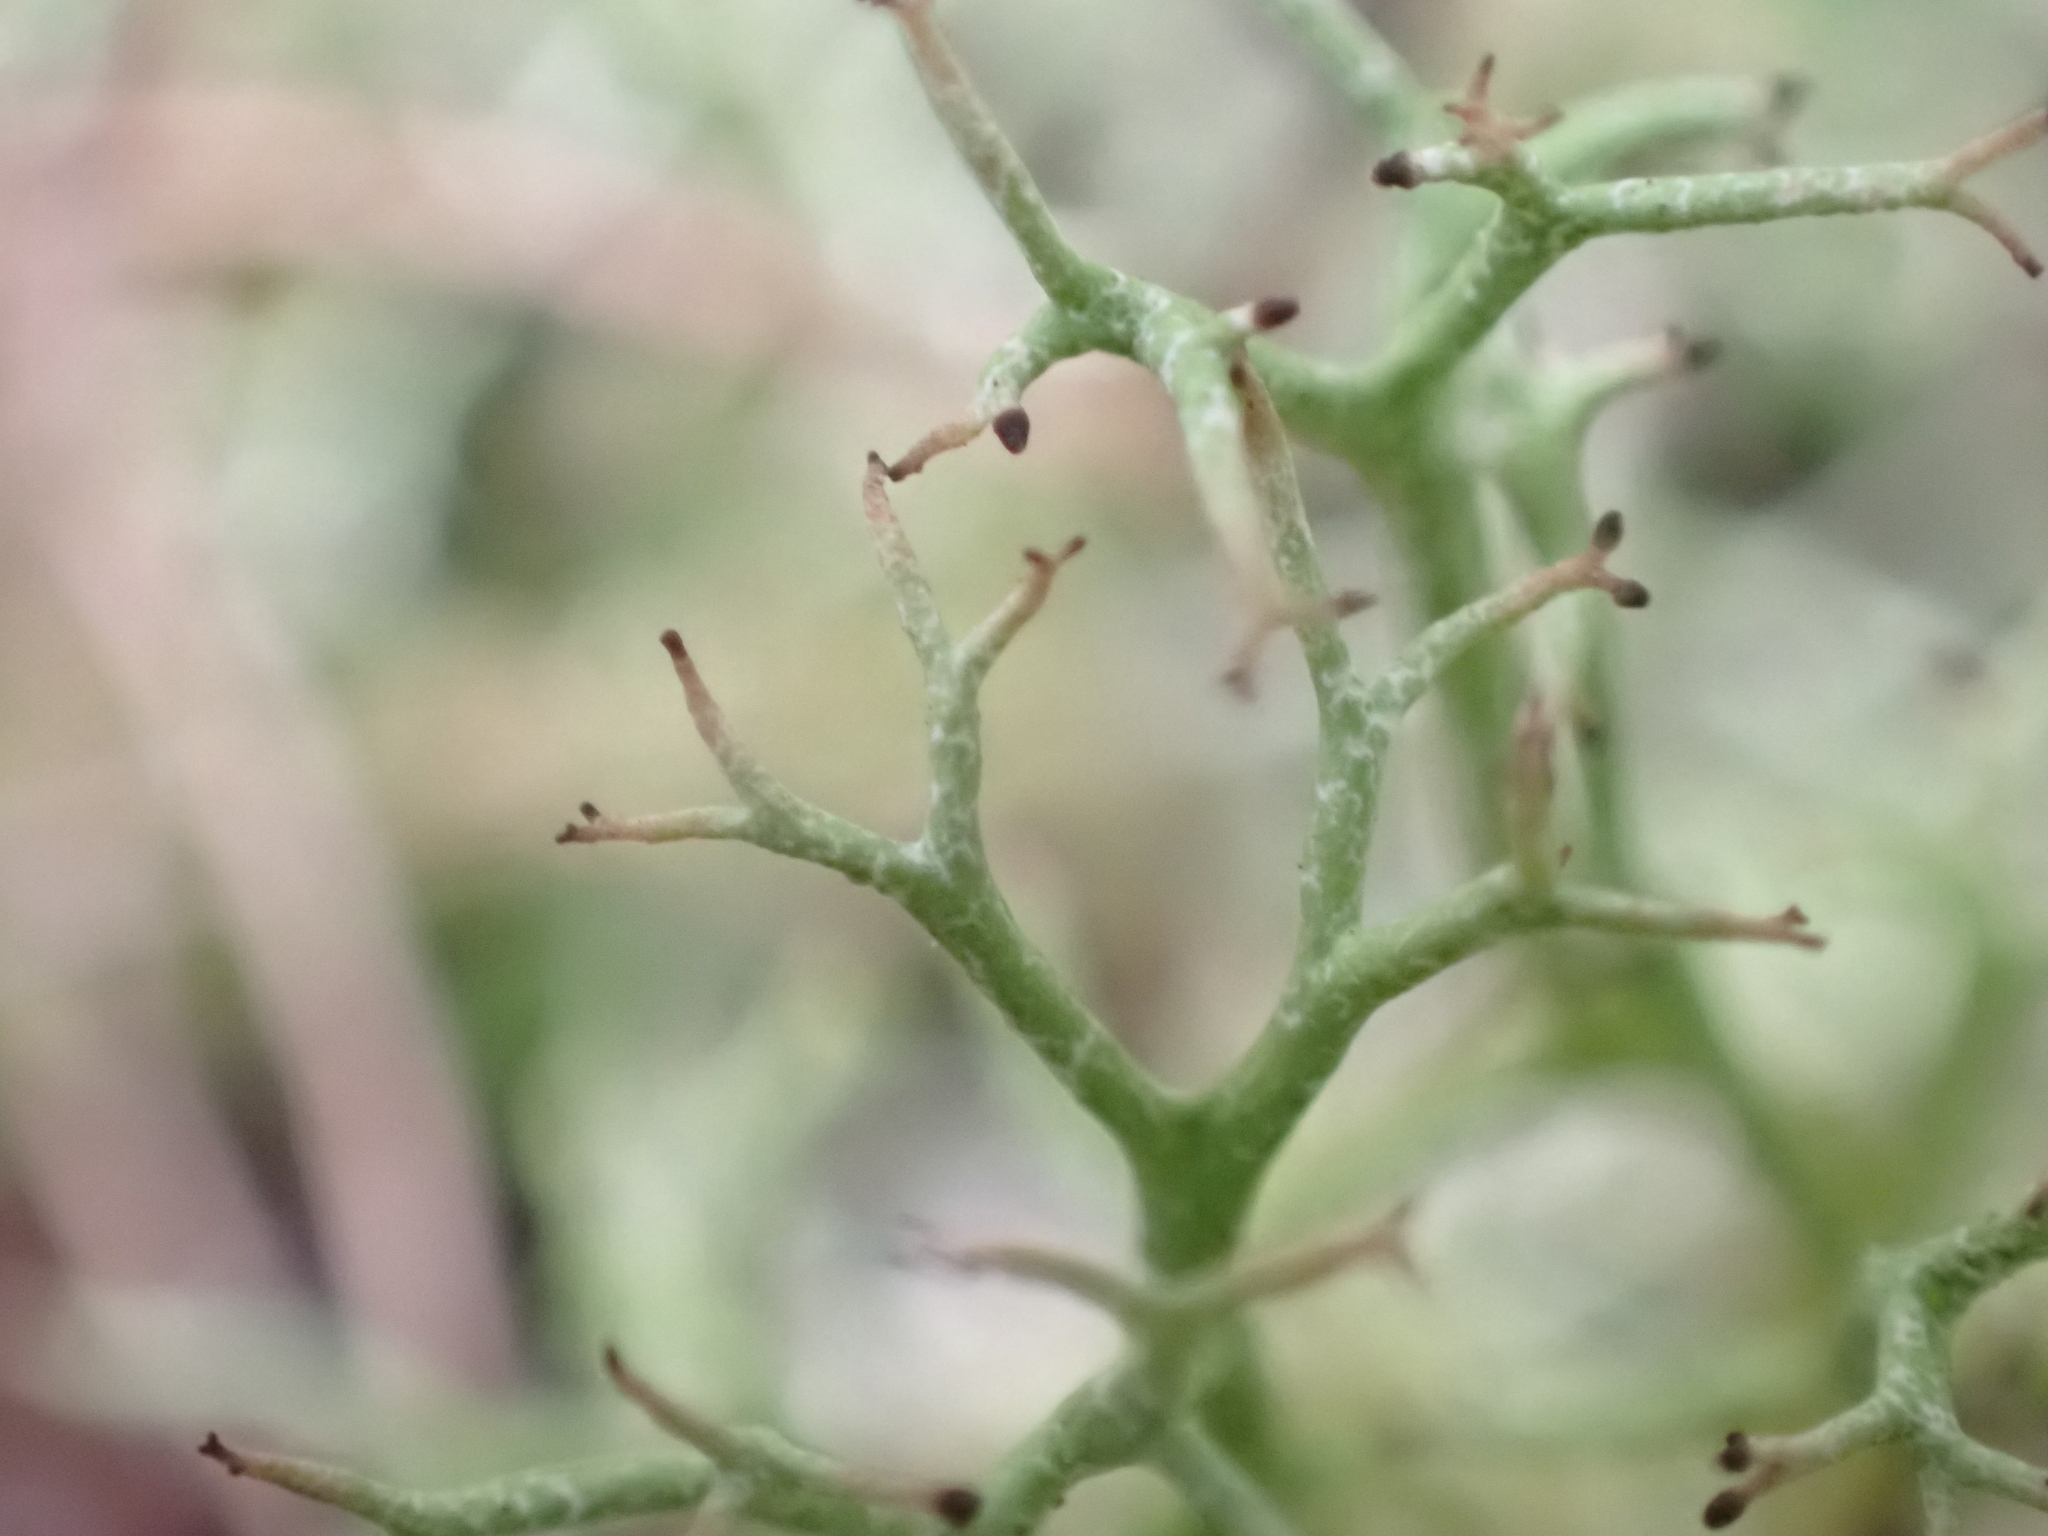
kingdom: Fungi
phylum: Ascomycota
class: Lecanoromycetes
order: Lecanorales
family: Cladoniaceae
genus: Cladonia
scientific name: Cladonia furcata
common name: Many-forked cladonia
